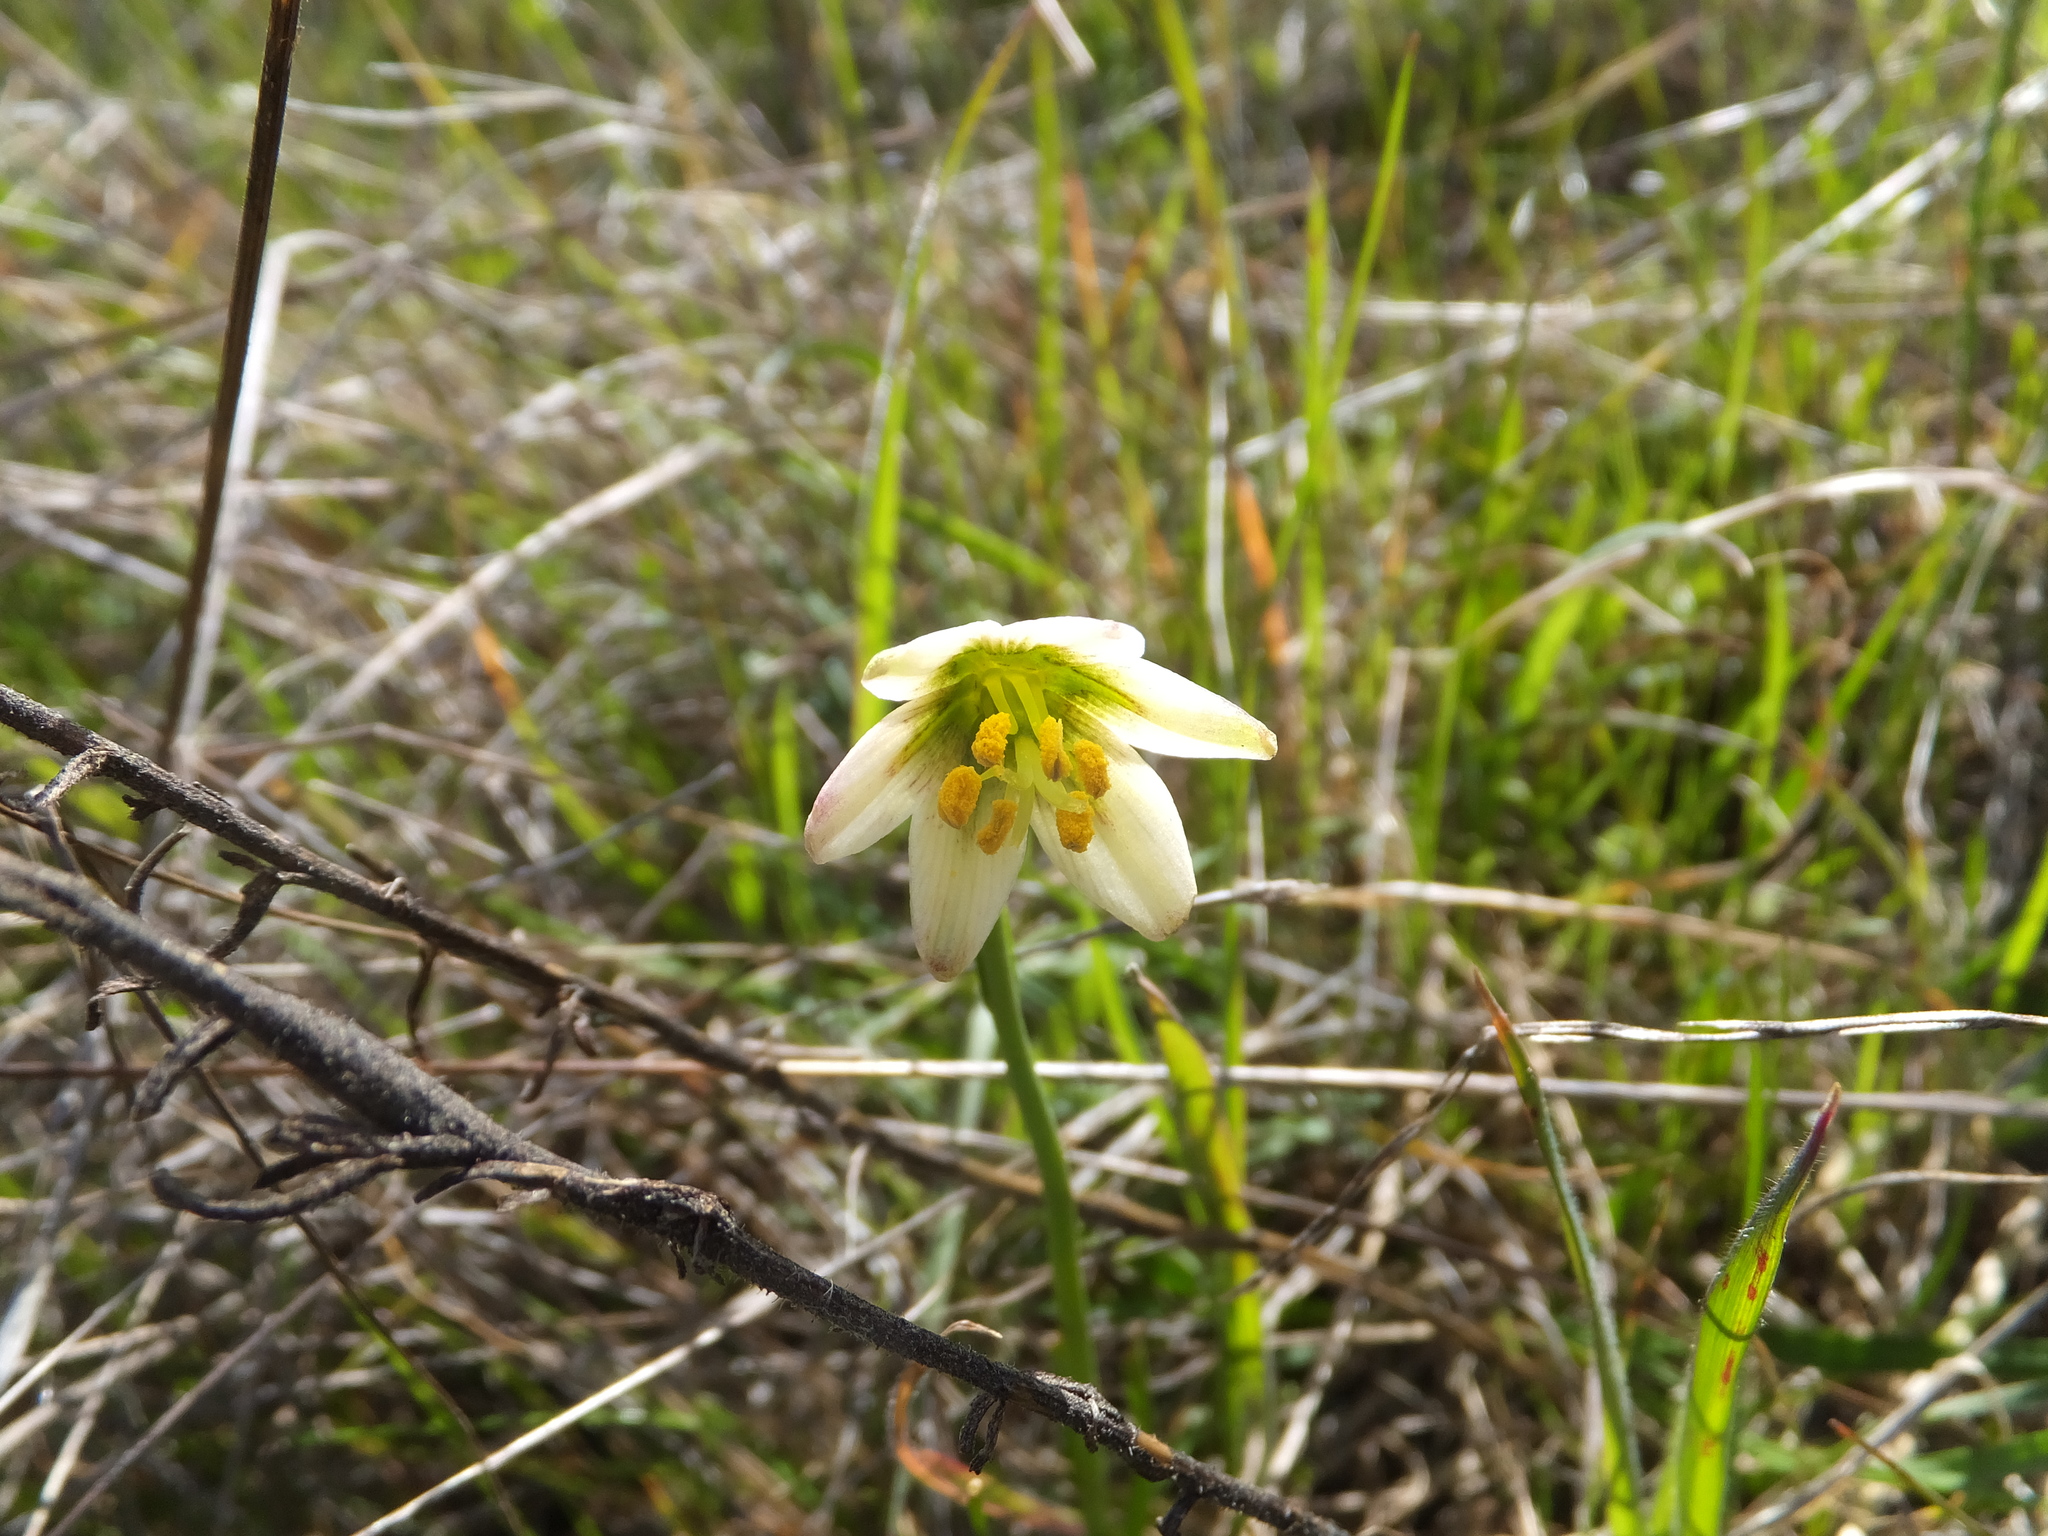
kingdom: Plantae
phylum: Tracheophyta
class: Liliopsida
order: Liliales
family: Liliaceae
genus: Fritillaria
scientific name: Fritillaria liliacea
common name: Fragrant fritillary
